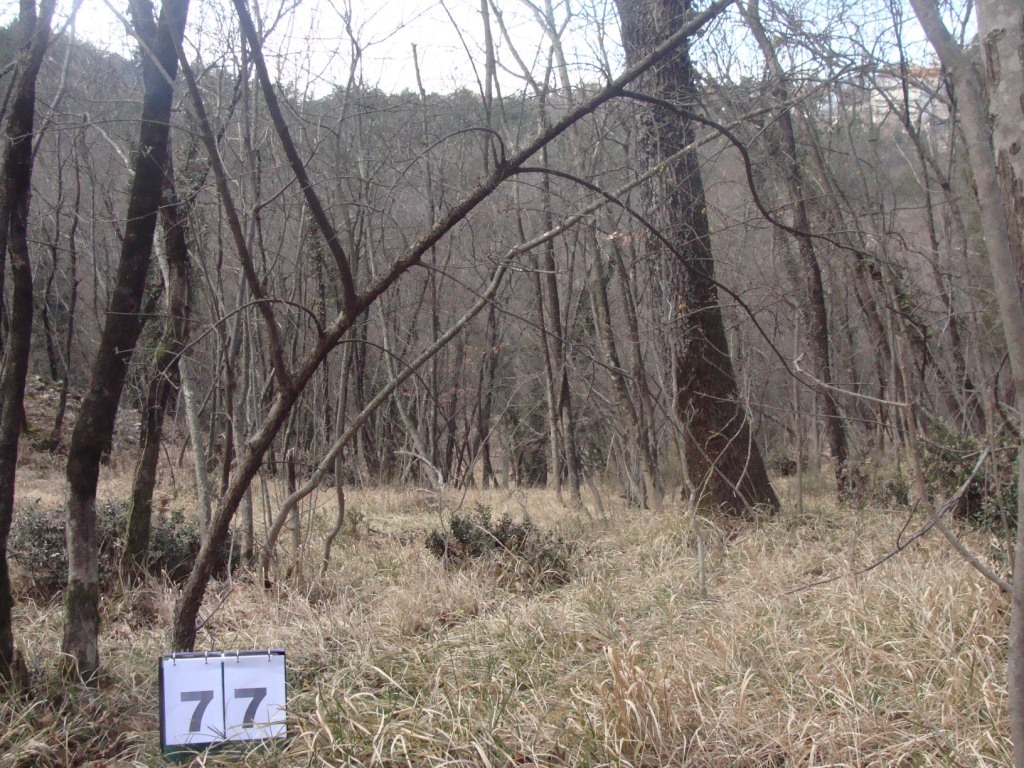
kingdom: Plantae
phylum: Tracheophyta
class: Magnoliopsida
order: Cornales
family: Cornaceae
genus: Cornus
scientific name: Cornus mas
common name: Cornelian-cherry
